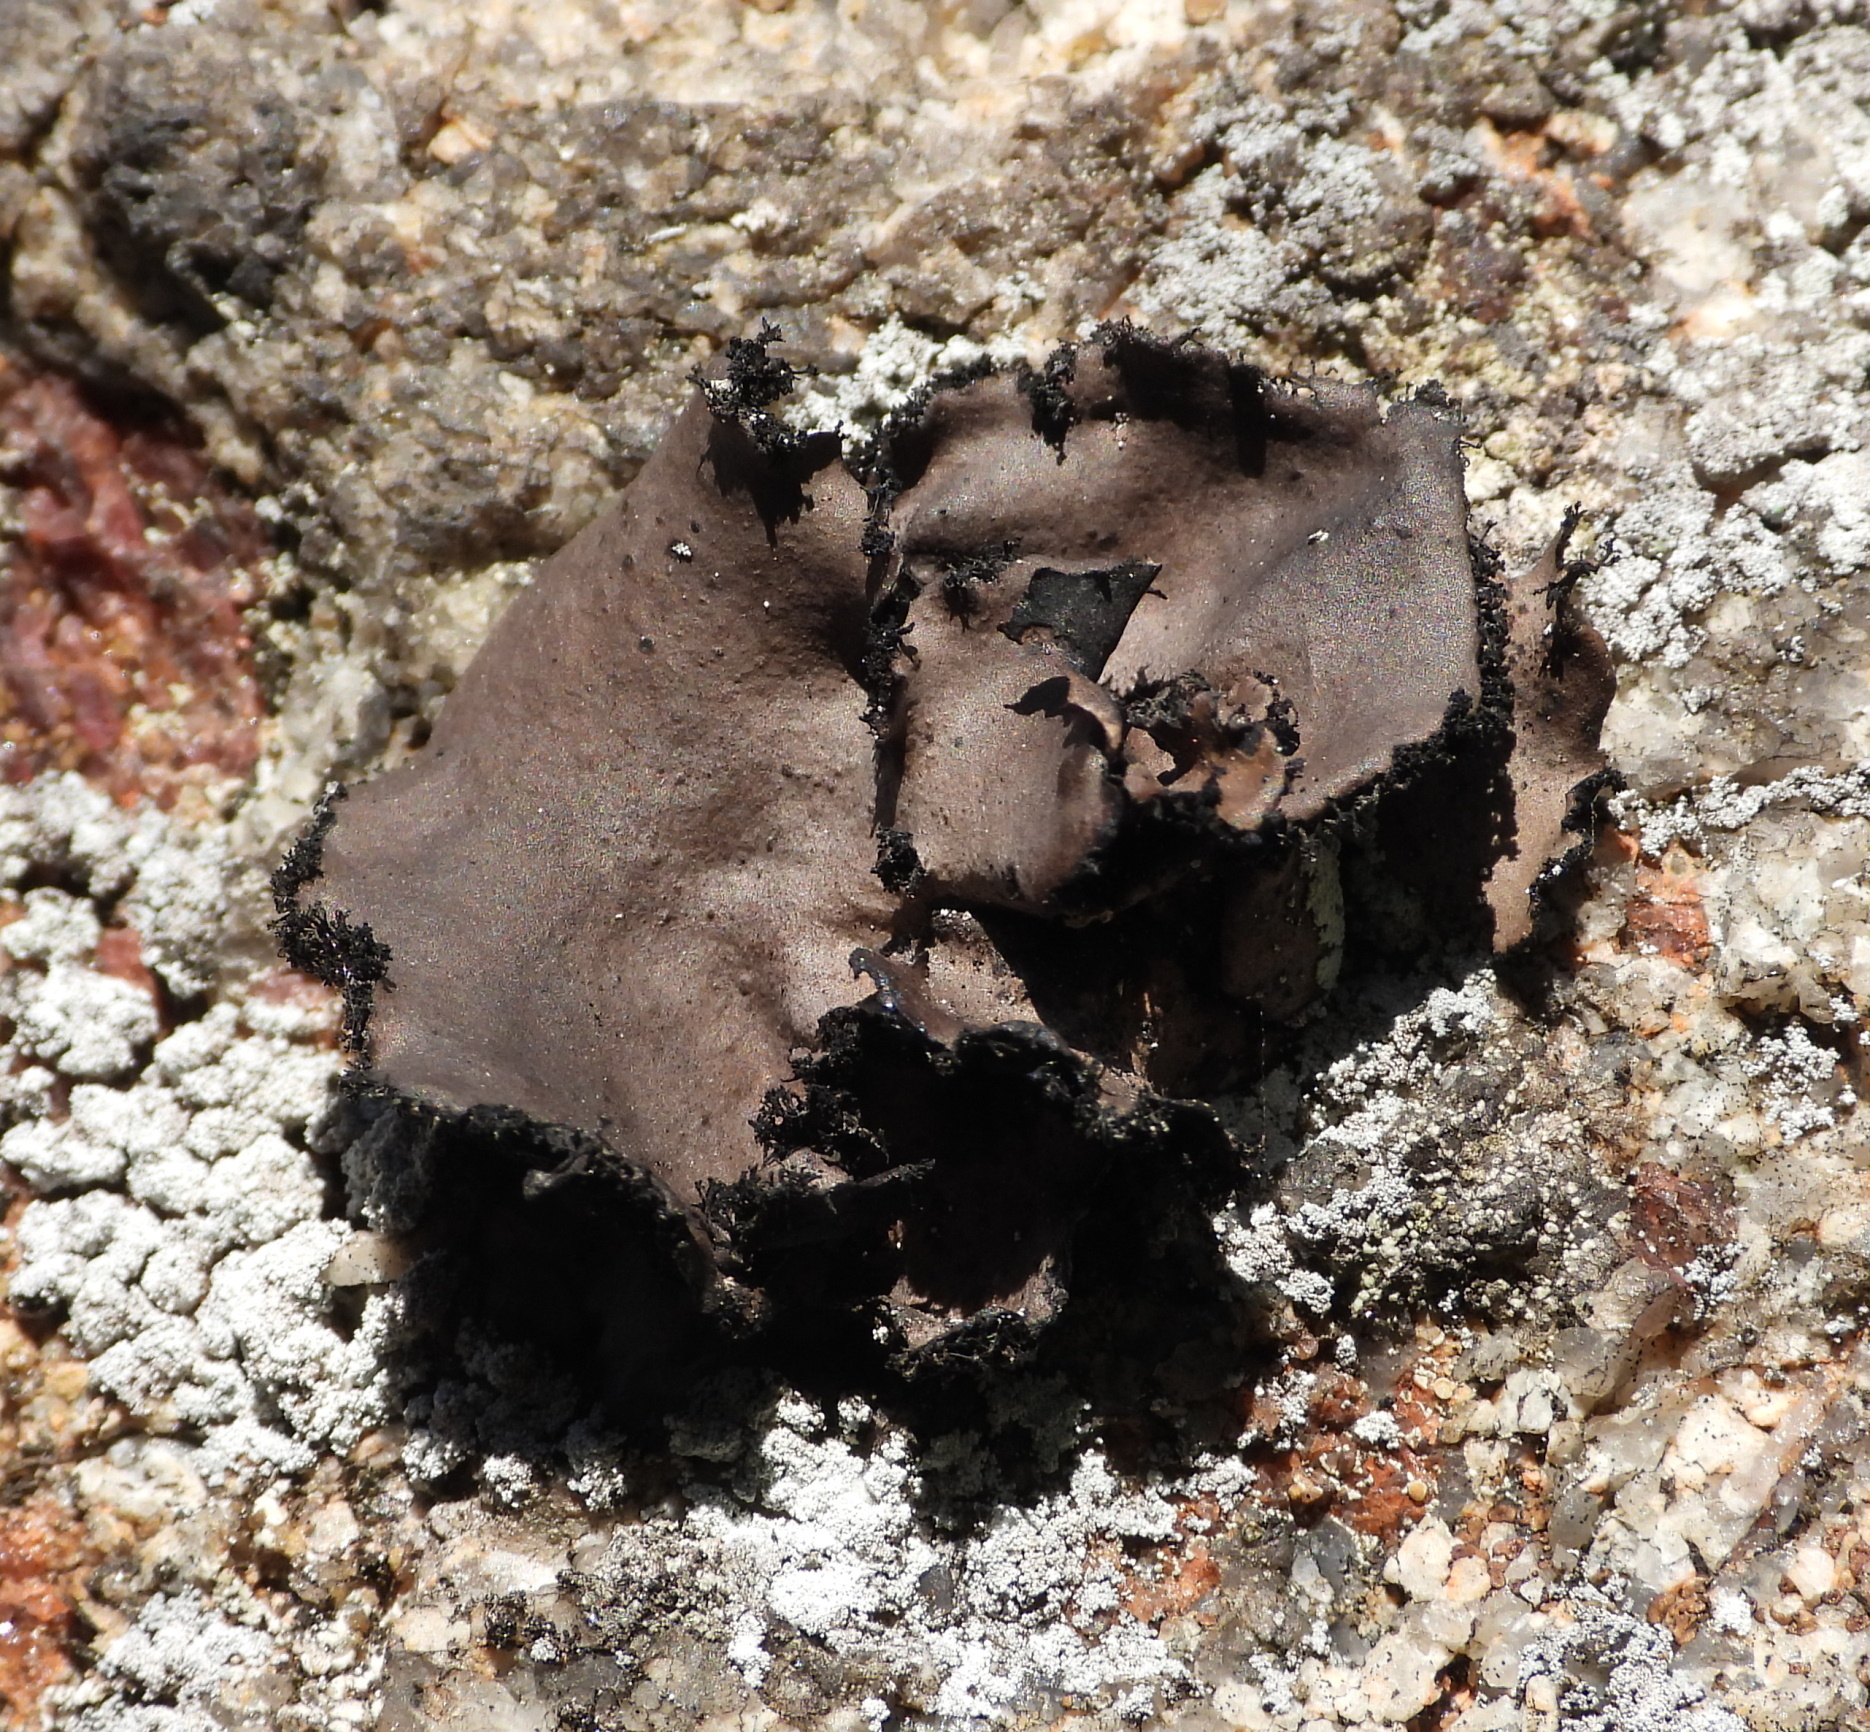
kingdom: Fungi
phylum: Ascomycota
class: Lecanoromycetes
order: Umbilicariales
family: Umbilicariaceae
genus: Umbilicaria
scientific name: Umbilicaria polyrrhiza
